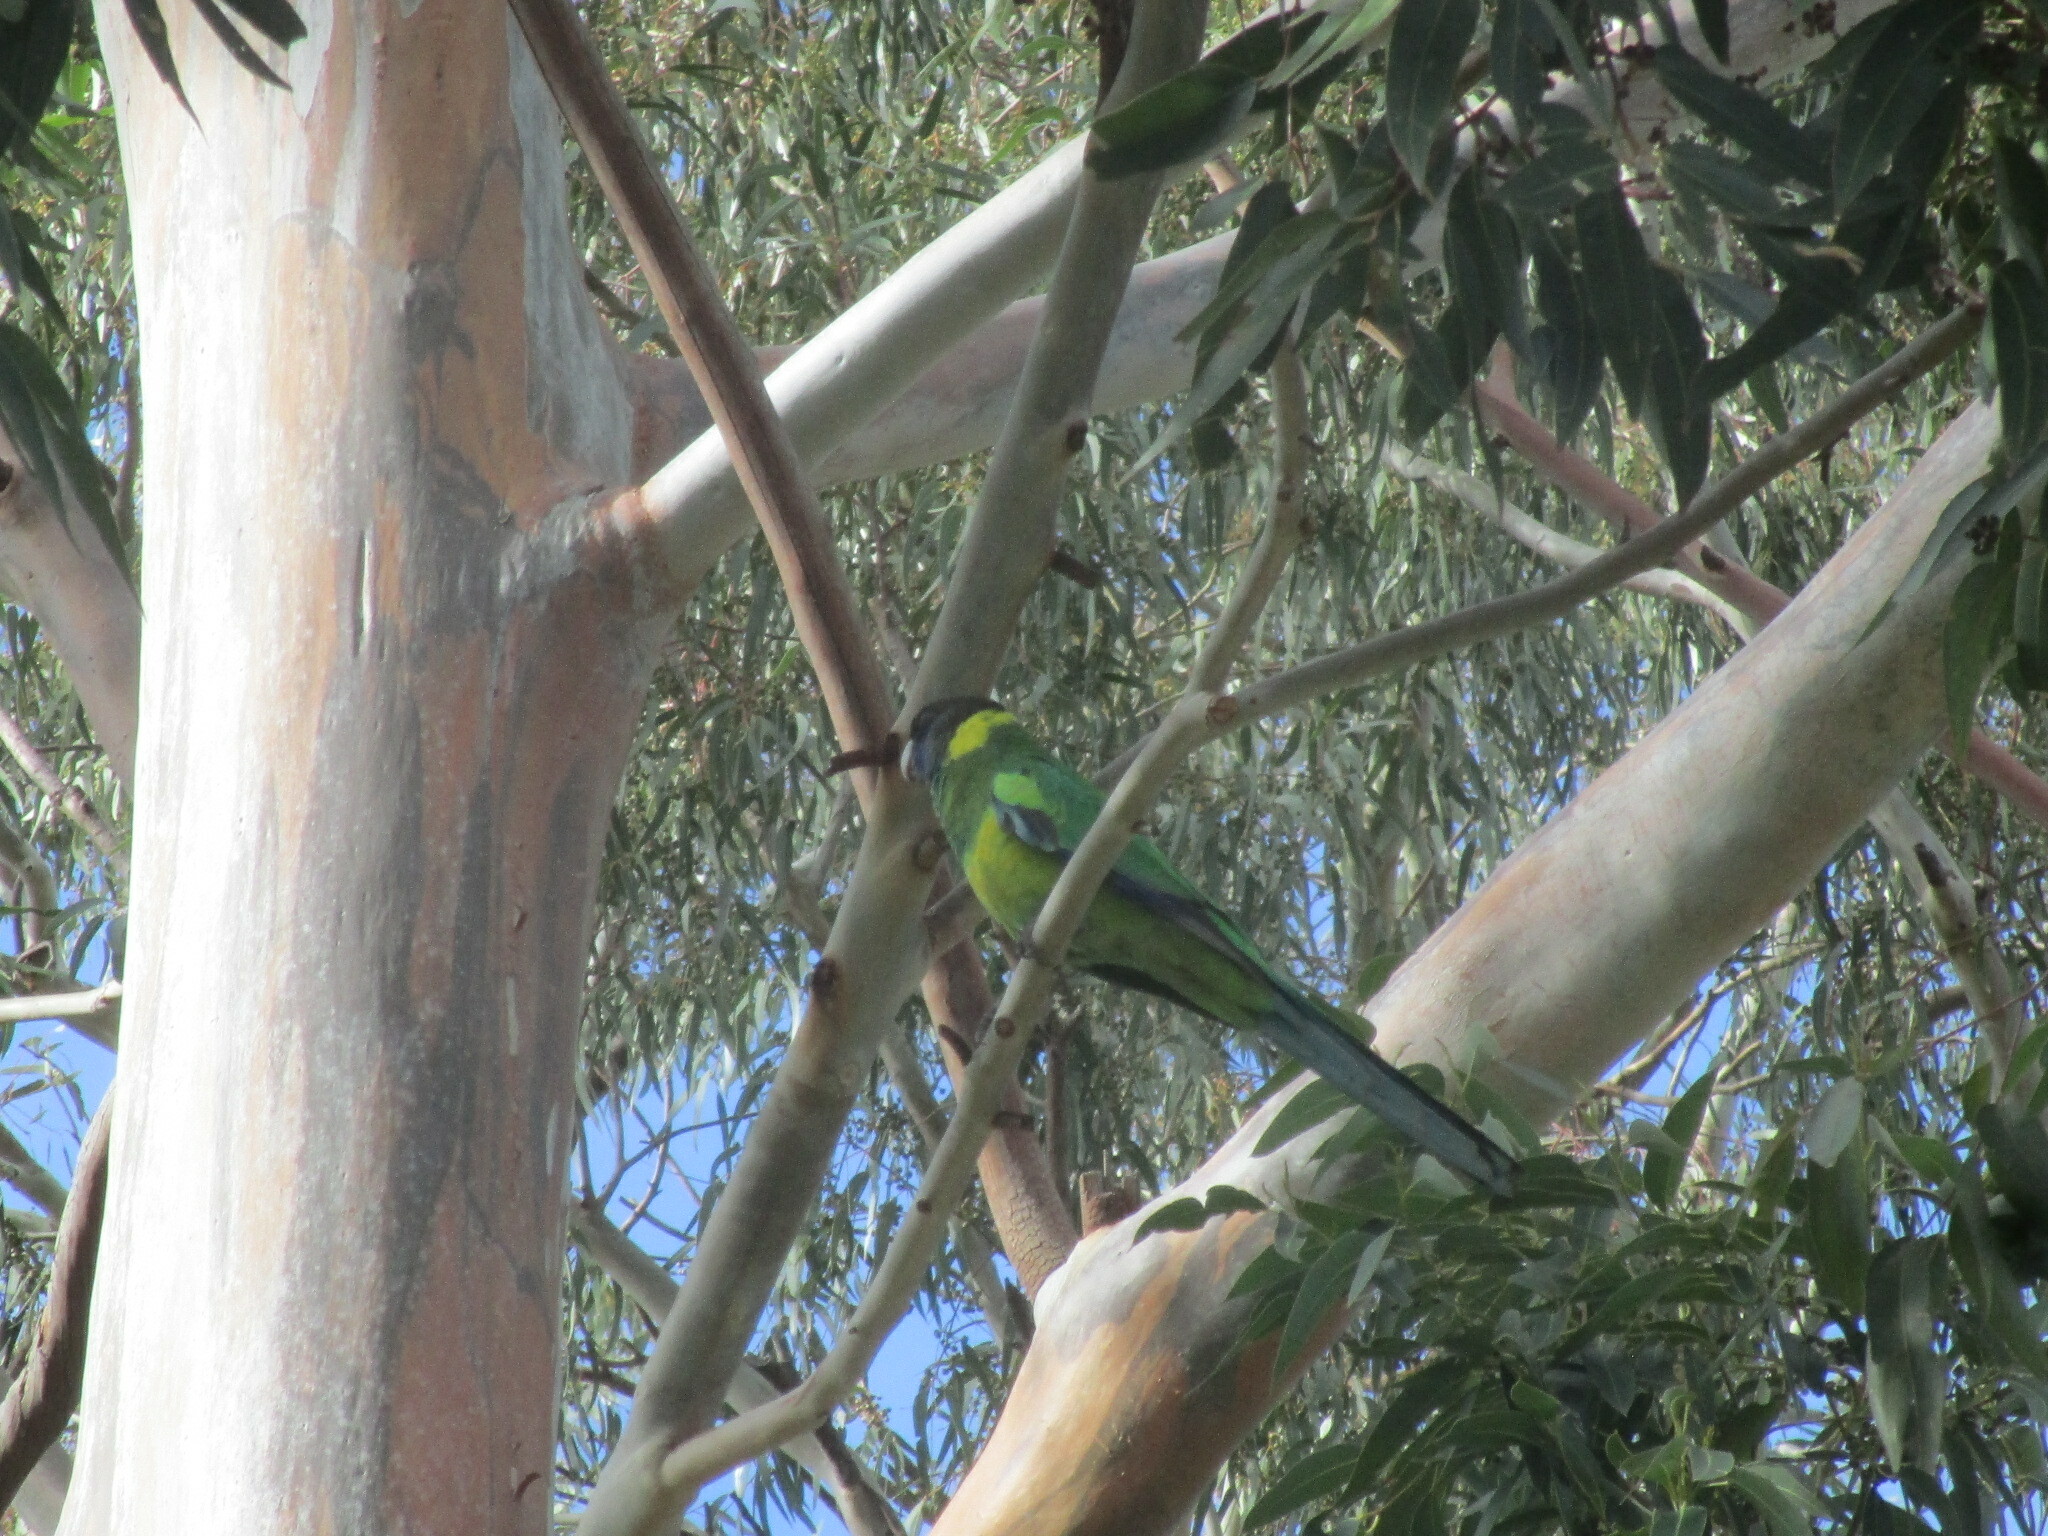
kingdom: Animalia
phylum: Chordata
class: Aves
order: Psittaciformes
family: Psittacidae
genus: Barnardius
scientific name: Barnardius zonarius
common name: Australian ringneck
